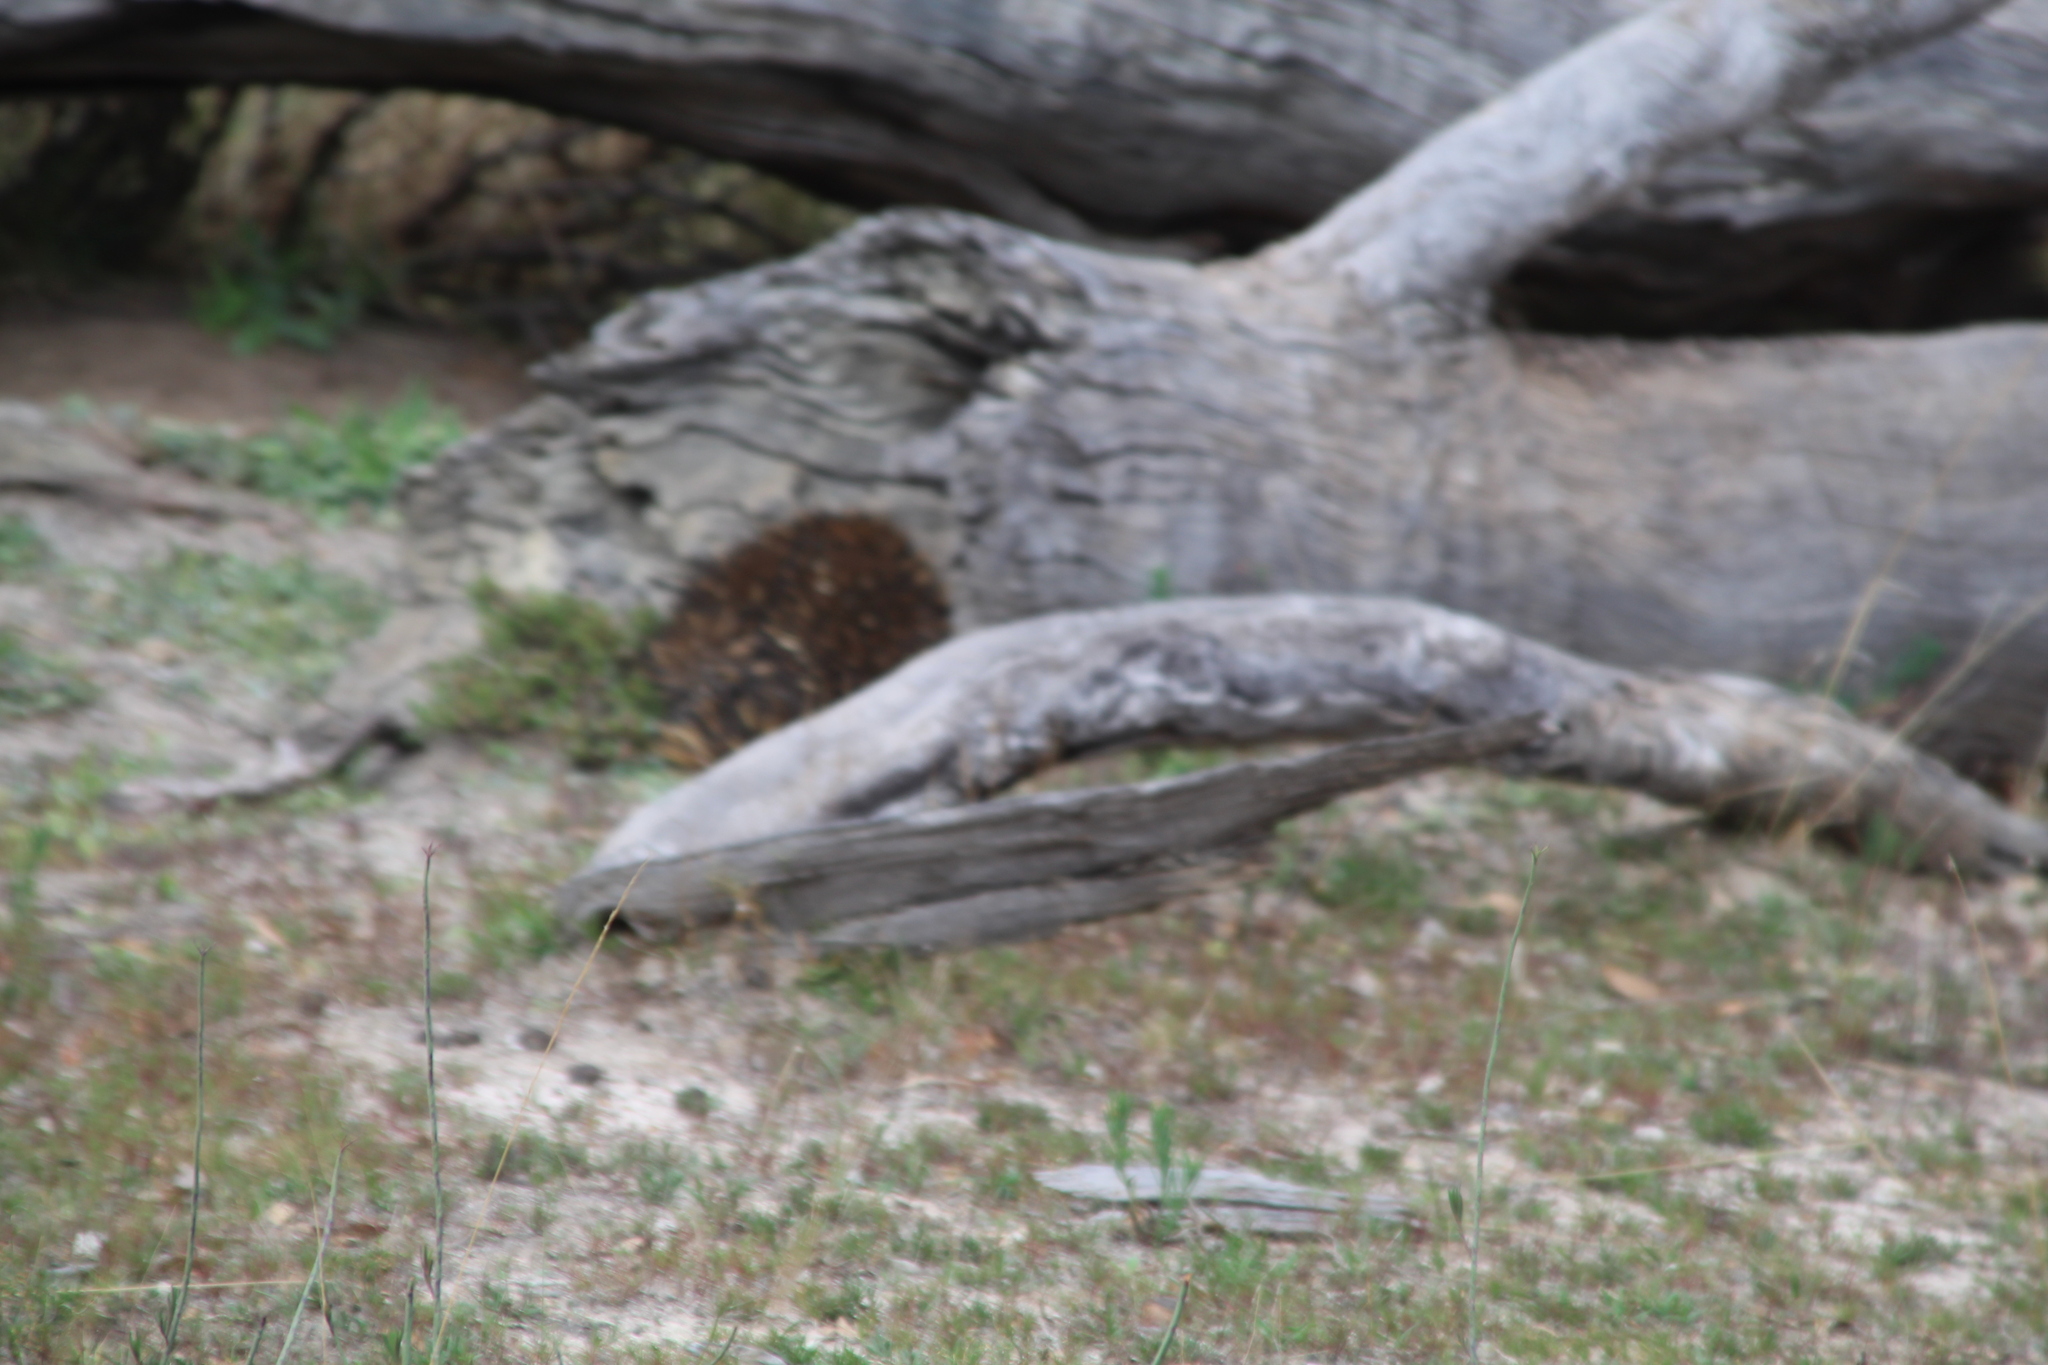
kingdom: Animalia
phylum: Chordata
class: Mammalia
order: Monotremata
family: Tachyglossidae
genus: Tachyglossus
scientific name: Tachyglossus aculeatus
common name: Short-beaked echidna
